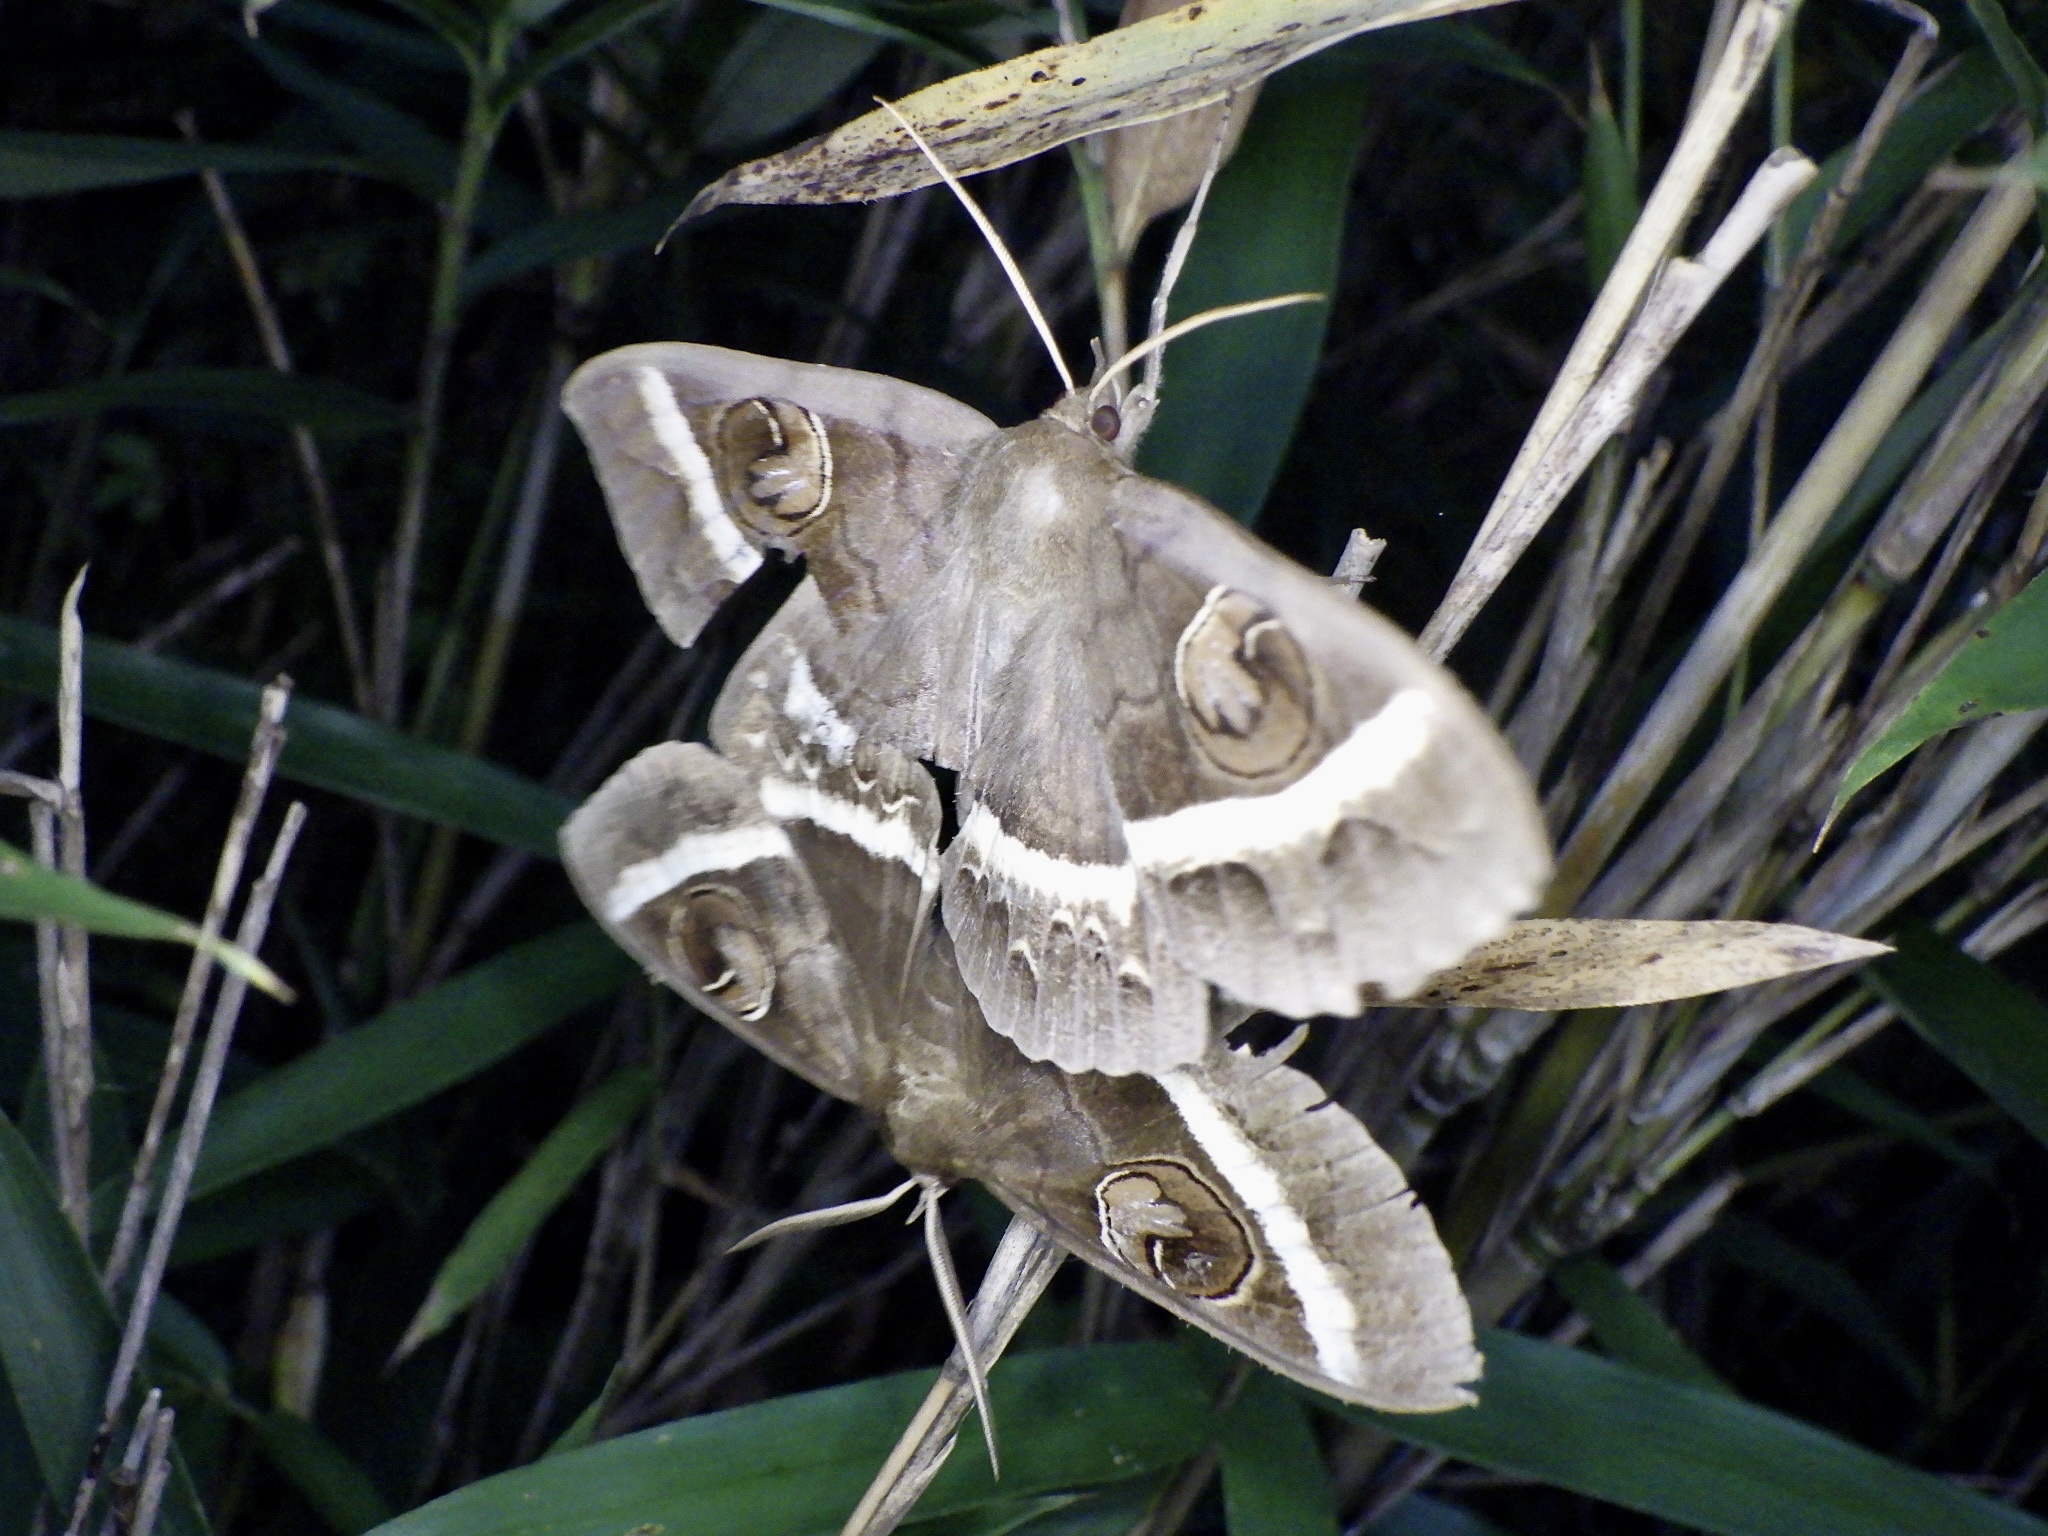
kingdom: Animalia
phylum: Arthropoda
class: Insecta
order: Lepidoptera
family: Erebidae
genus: Metopta
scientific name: Metopta rectifasciata
